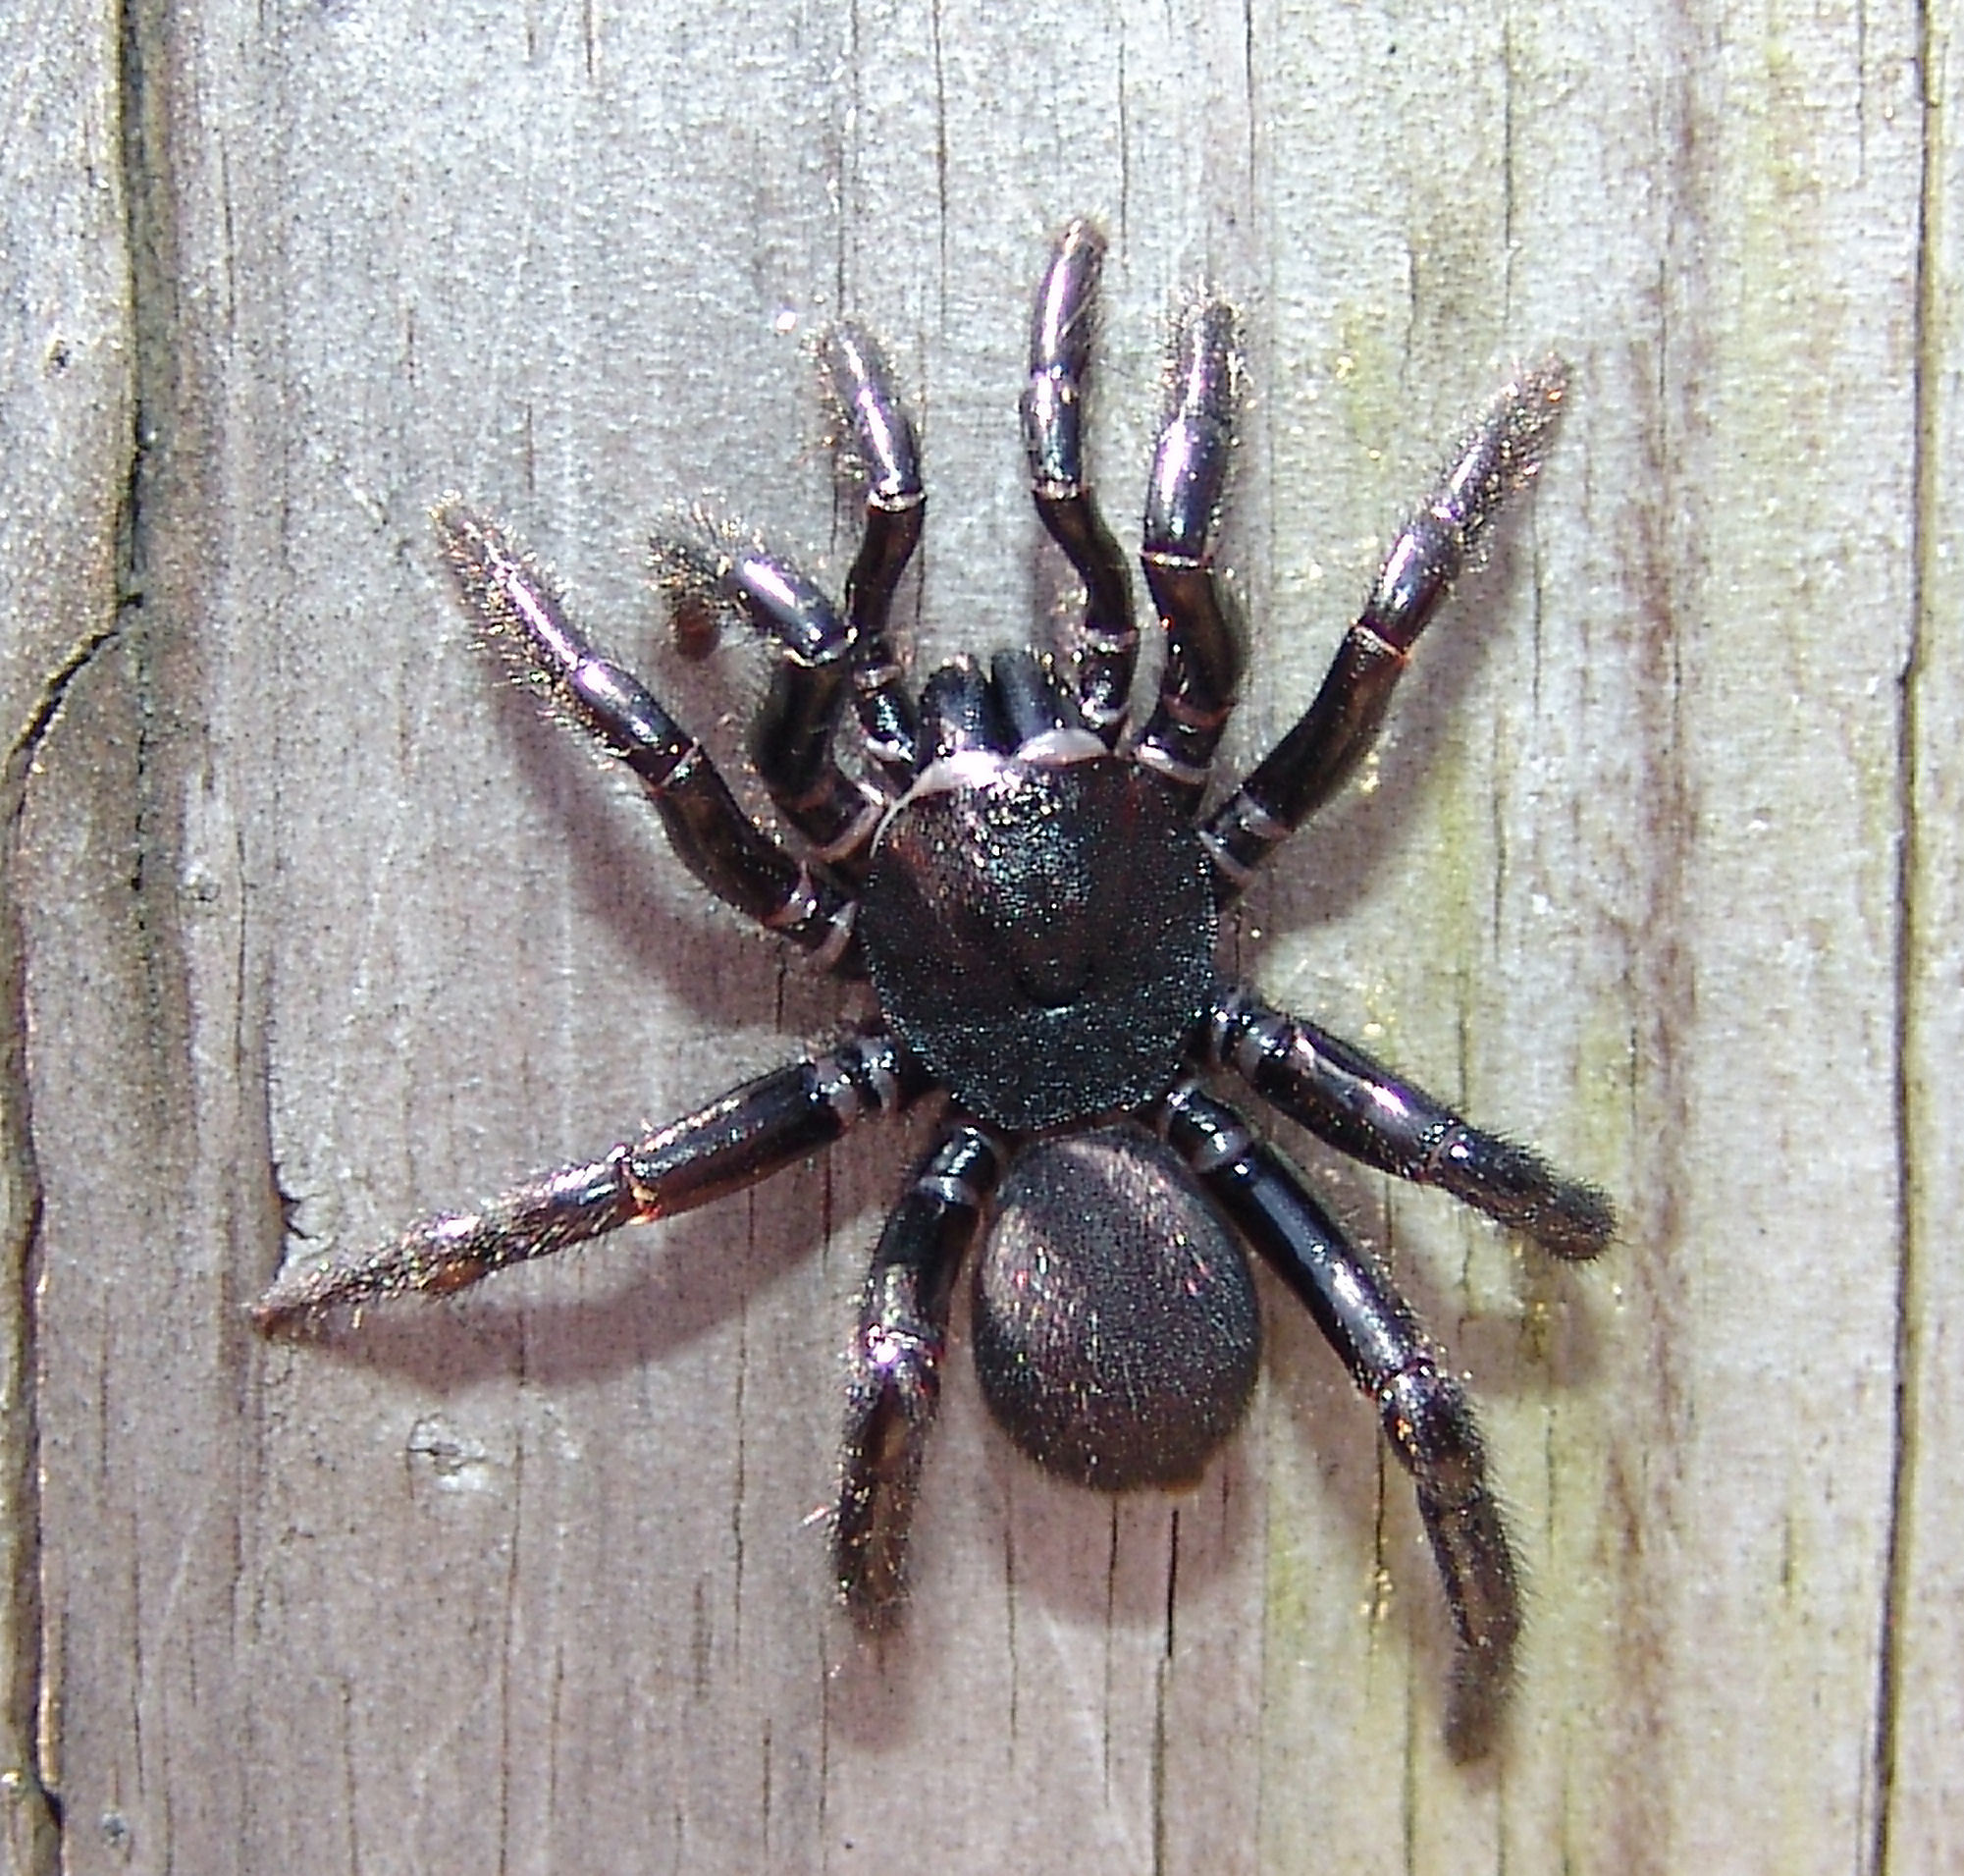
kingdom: Animalia
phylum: Arthropoda
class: Arachnida
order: Araneae
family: Halonoproctidae
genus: Ummidia
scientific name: Ummidia audouini
